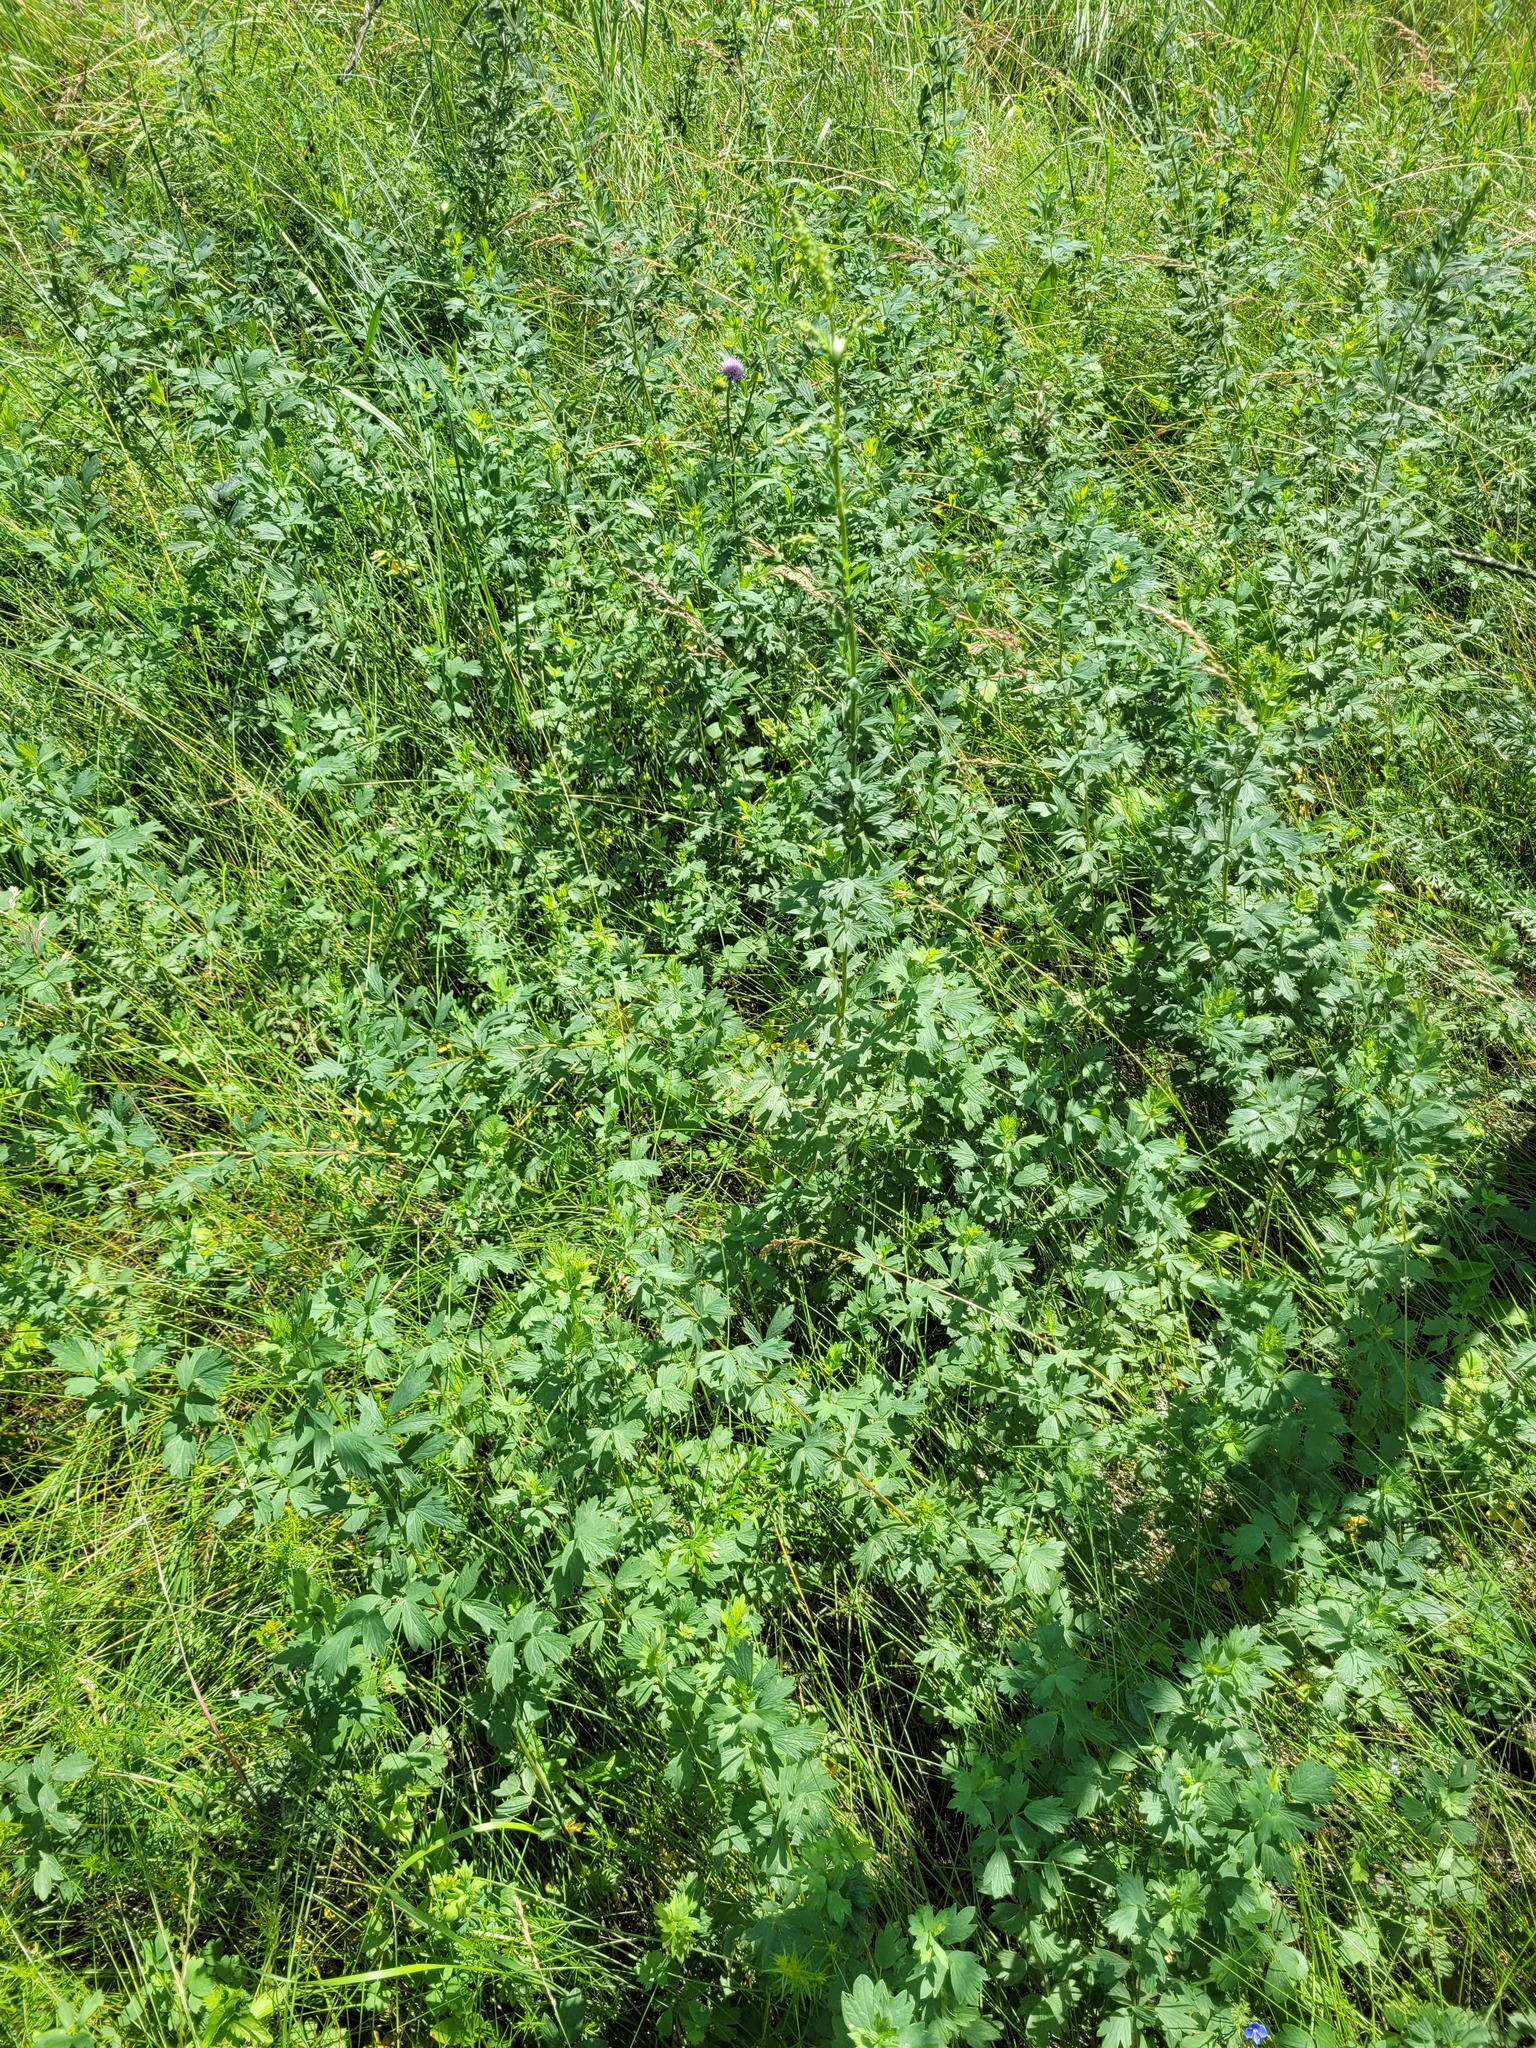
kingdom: Plantae
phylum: Tracheophyta
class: Magnoliopsida
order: Ranunculales
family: Ranunculaceae
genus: Thalictrum
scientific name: Thalictrum simplex
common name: Small meadow-rue
